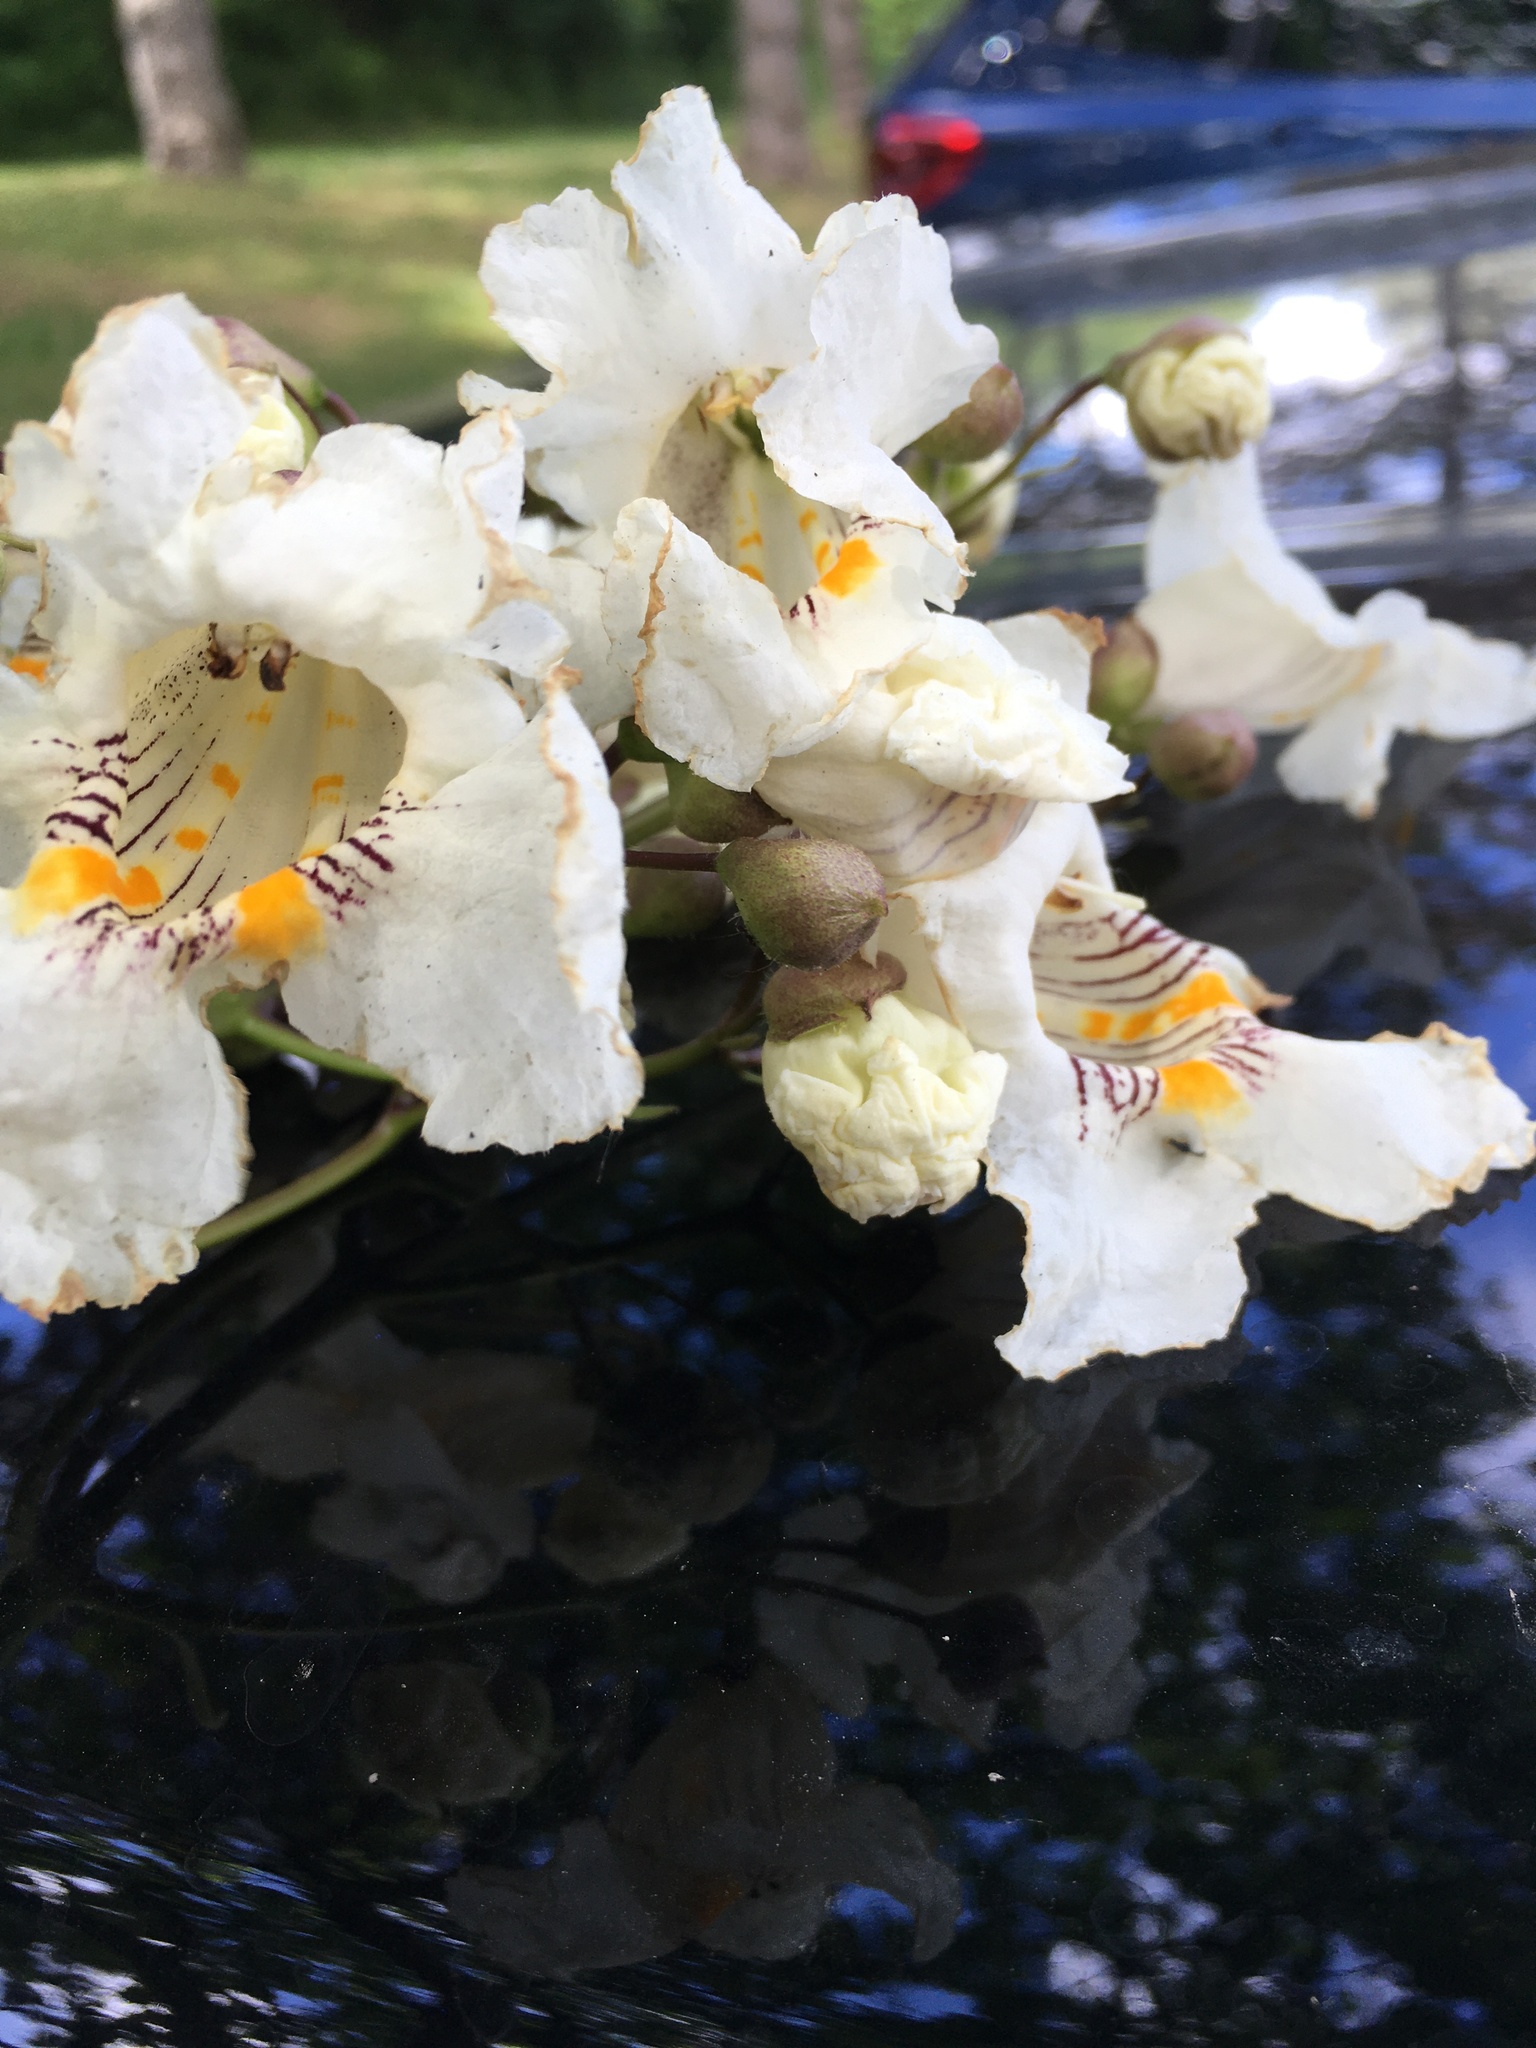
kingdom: Plantae
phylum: Tracheophyta
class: Magnoliopsida
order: Lamiales
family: Bignoniaceae
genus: Catalpa
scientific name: Catalpa speciosa
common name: Northern catalpa
